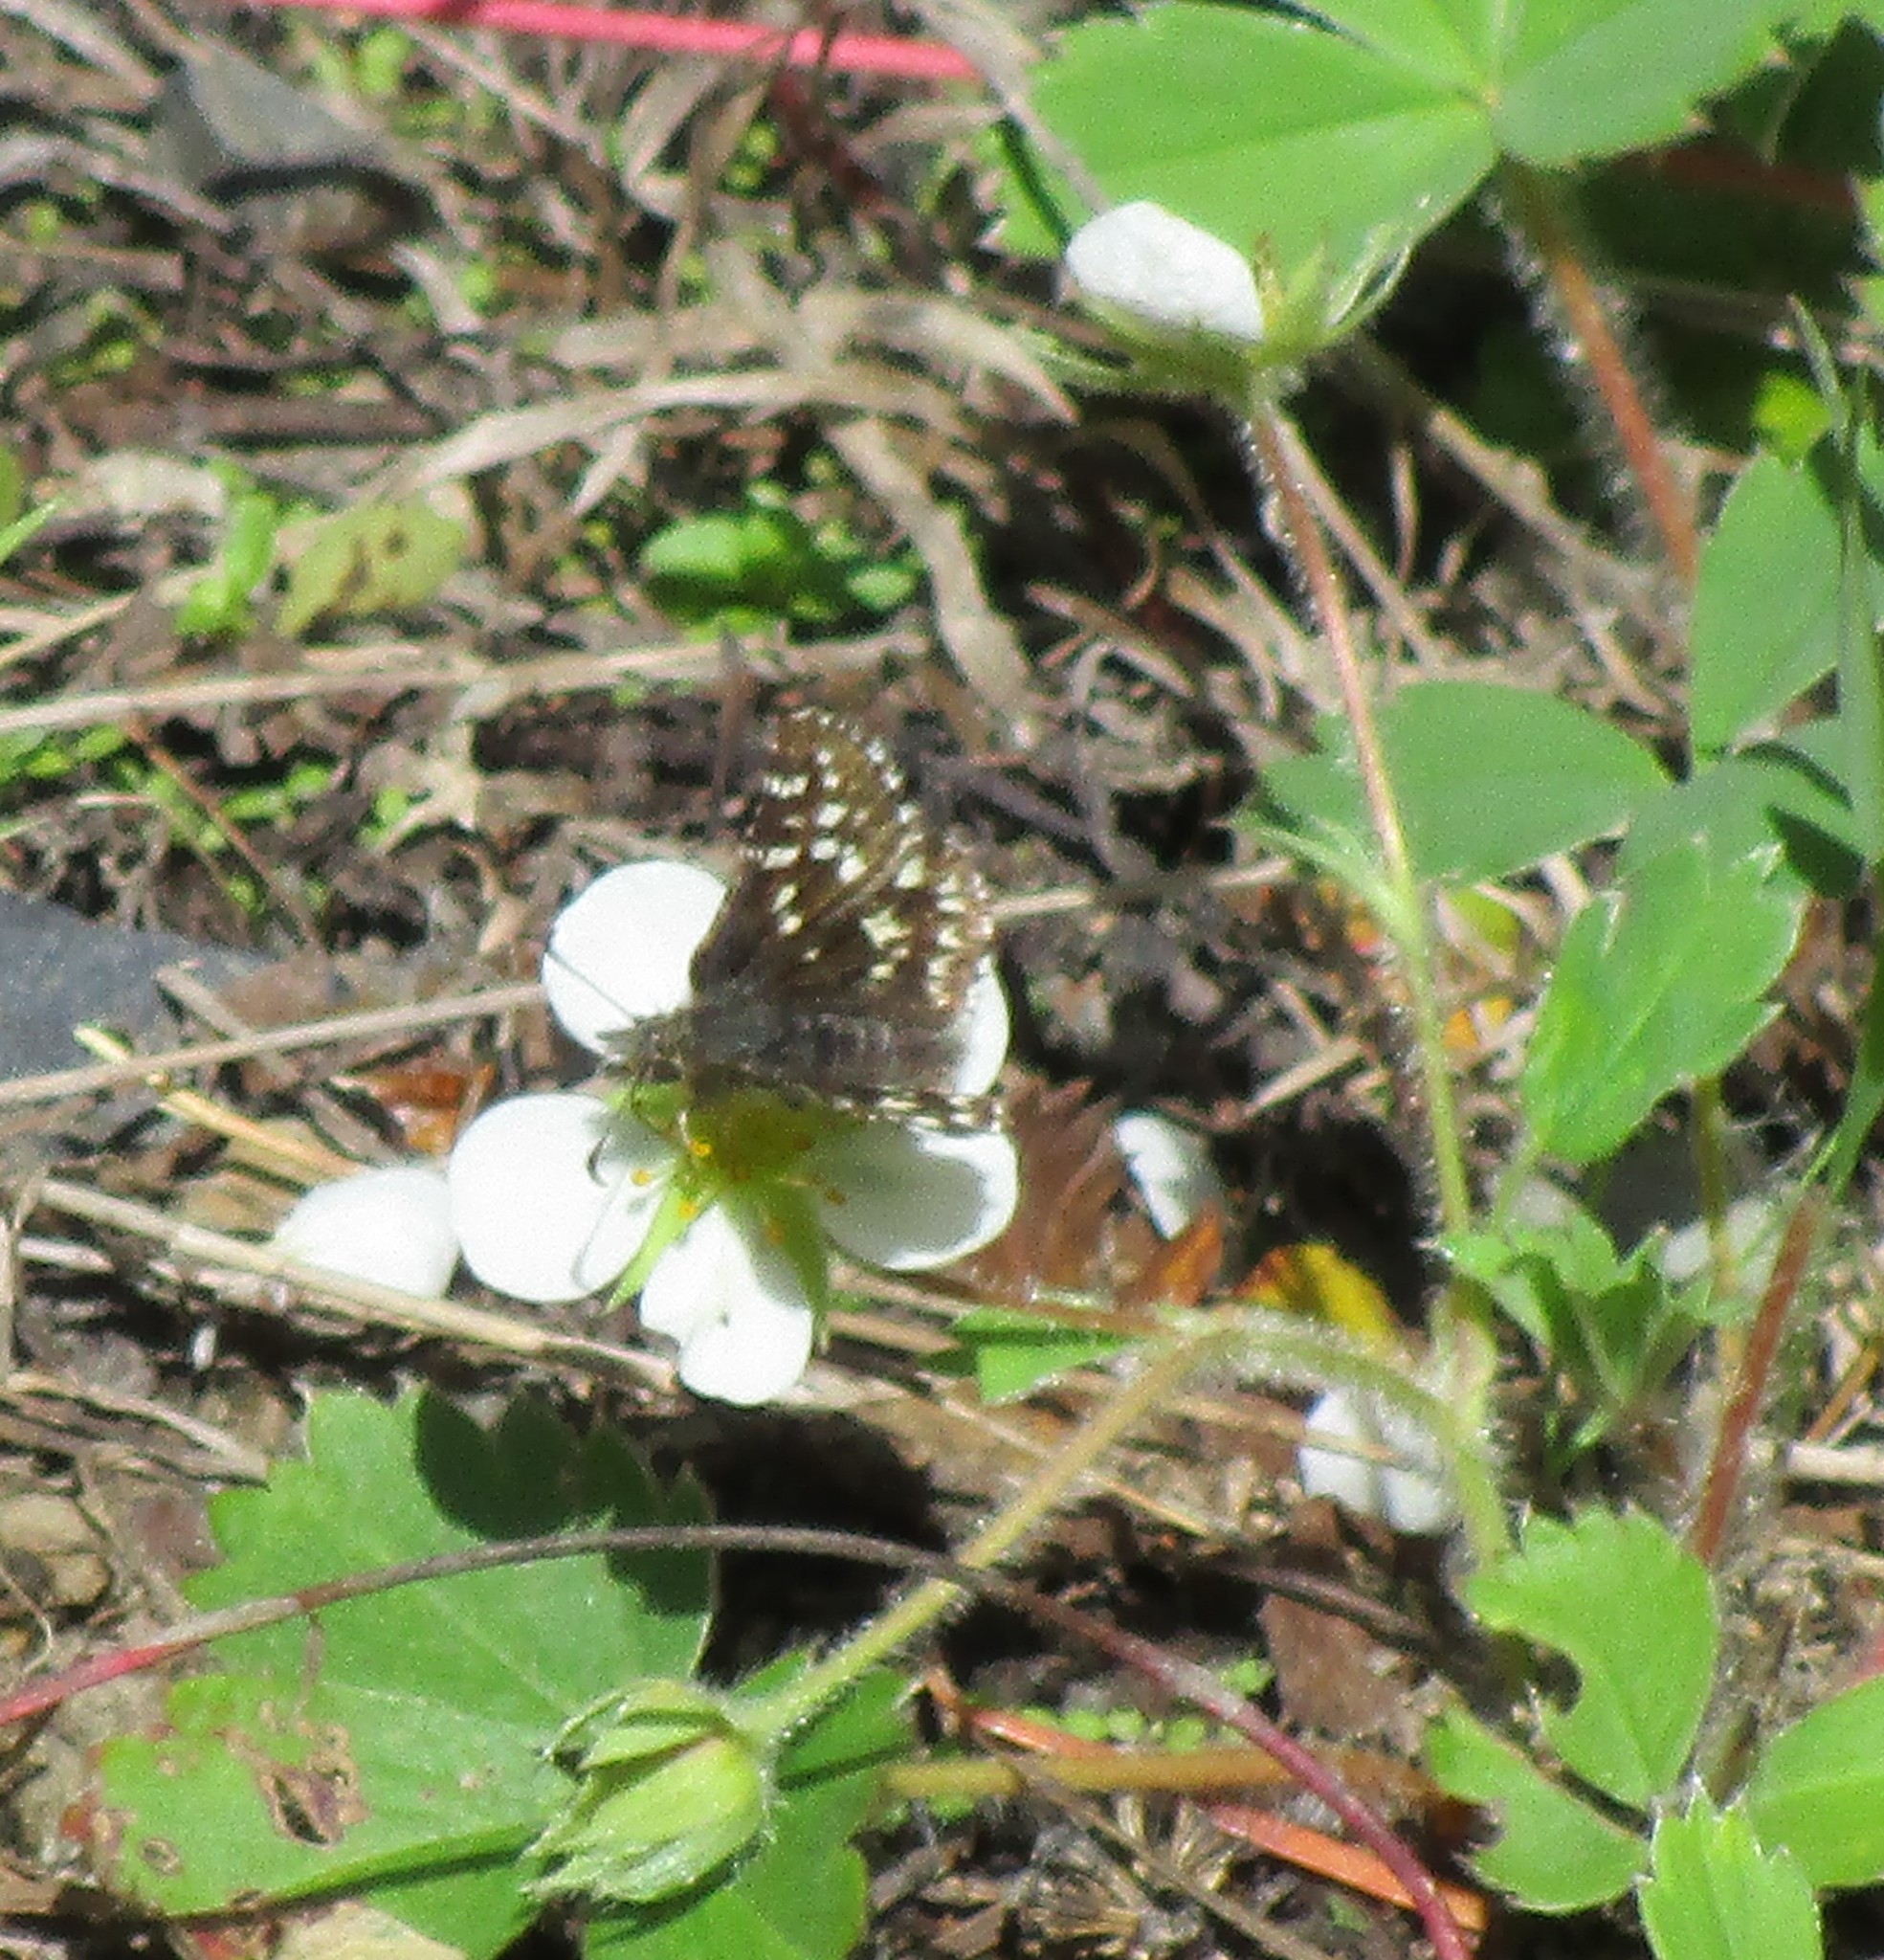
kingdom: Animalia
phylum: Arthropoda
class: Insecta
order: Lepidoptera
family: Hesperiidae
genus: Pyrgus
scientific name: Pyrgus ruralis
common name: Two-banded checkered-skipper
